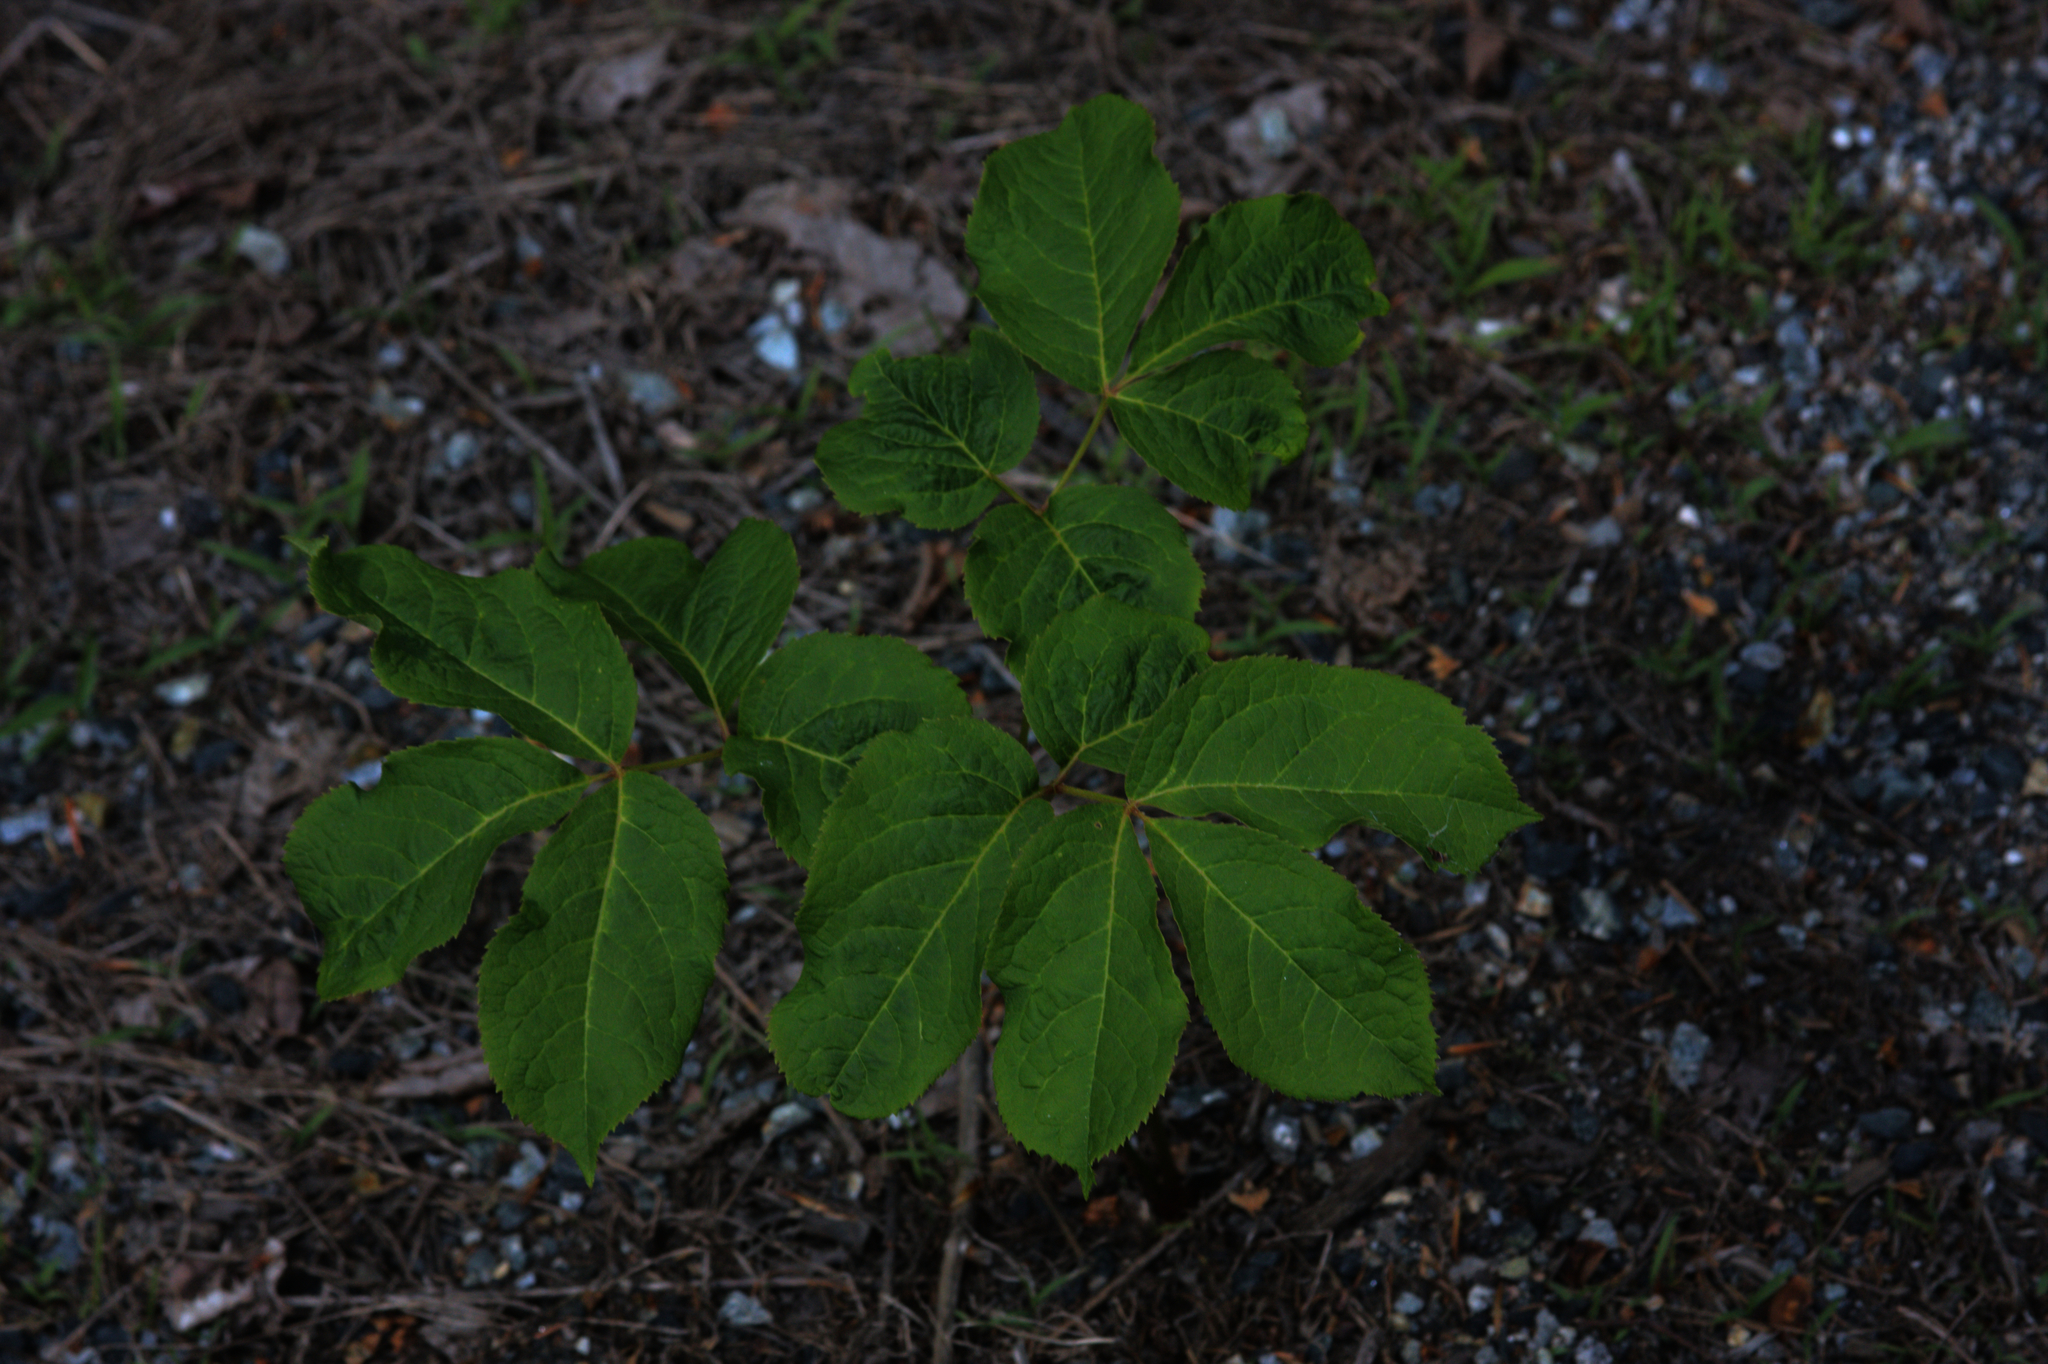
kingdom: Plantae
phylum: Tracheophyta
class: Magnoliopsida
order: Apiales
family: Araliaceae
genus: Aralia
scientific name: Aralia nudicaulis
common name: Wild sarsaparilla
